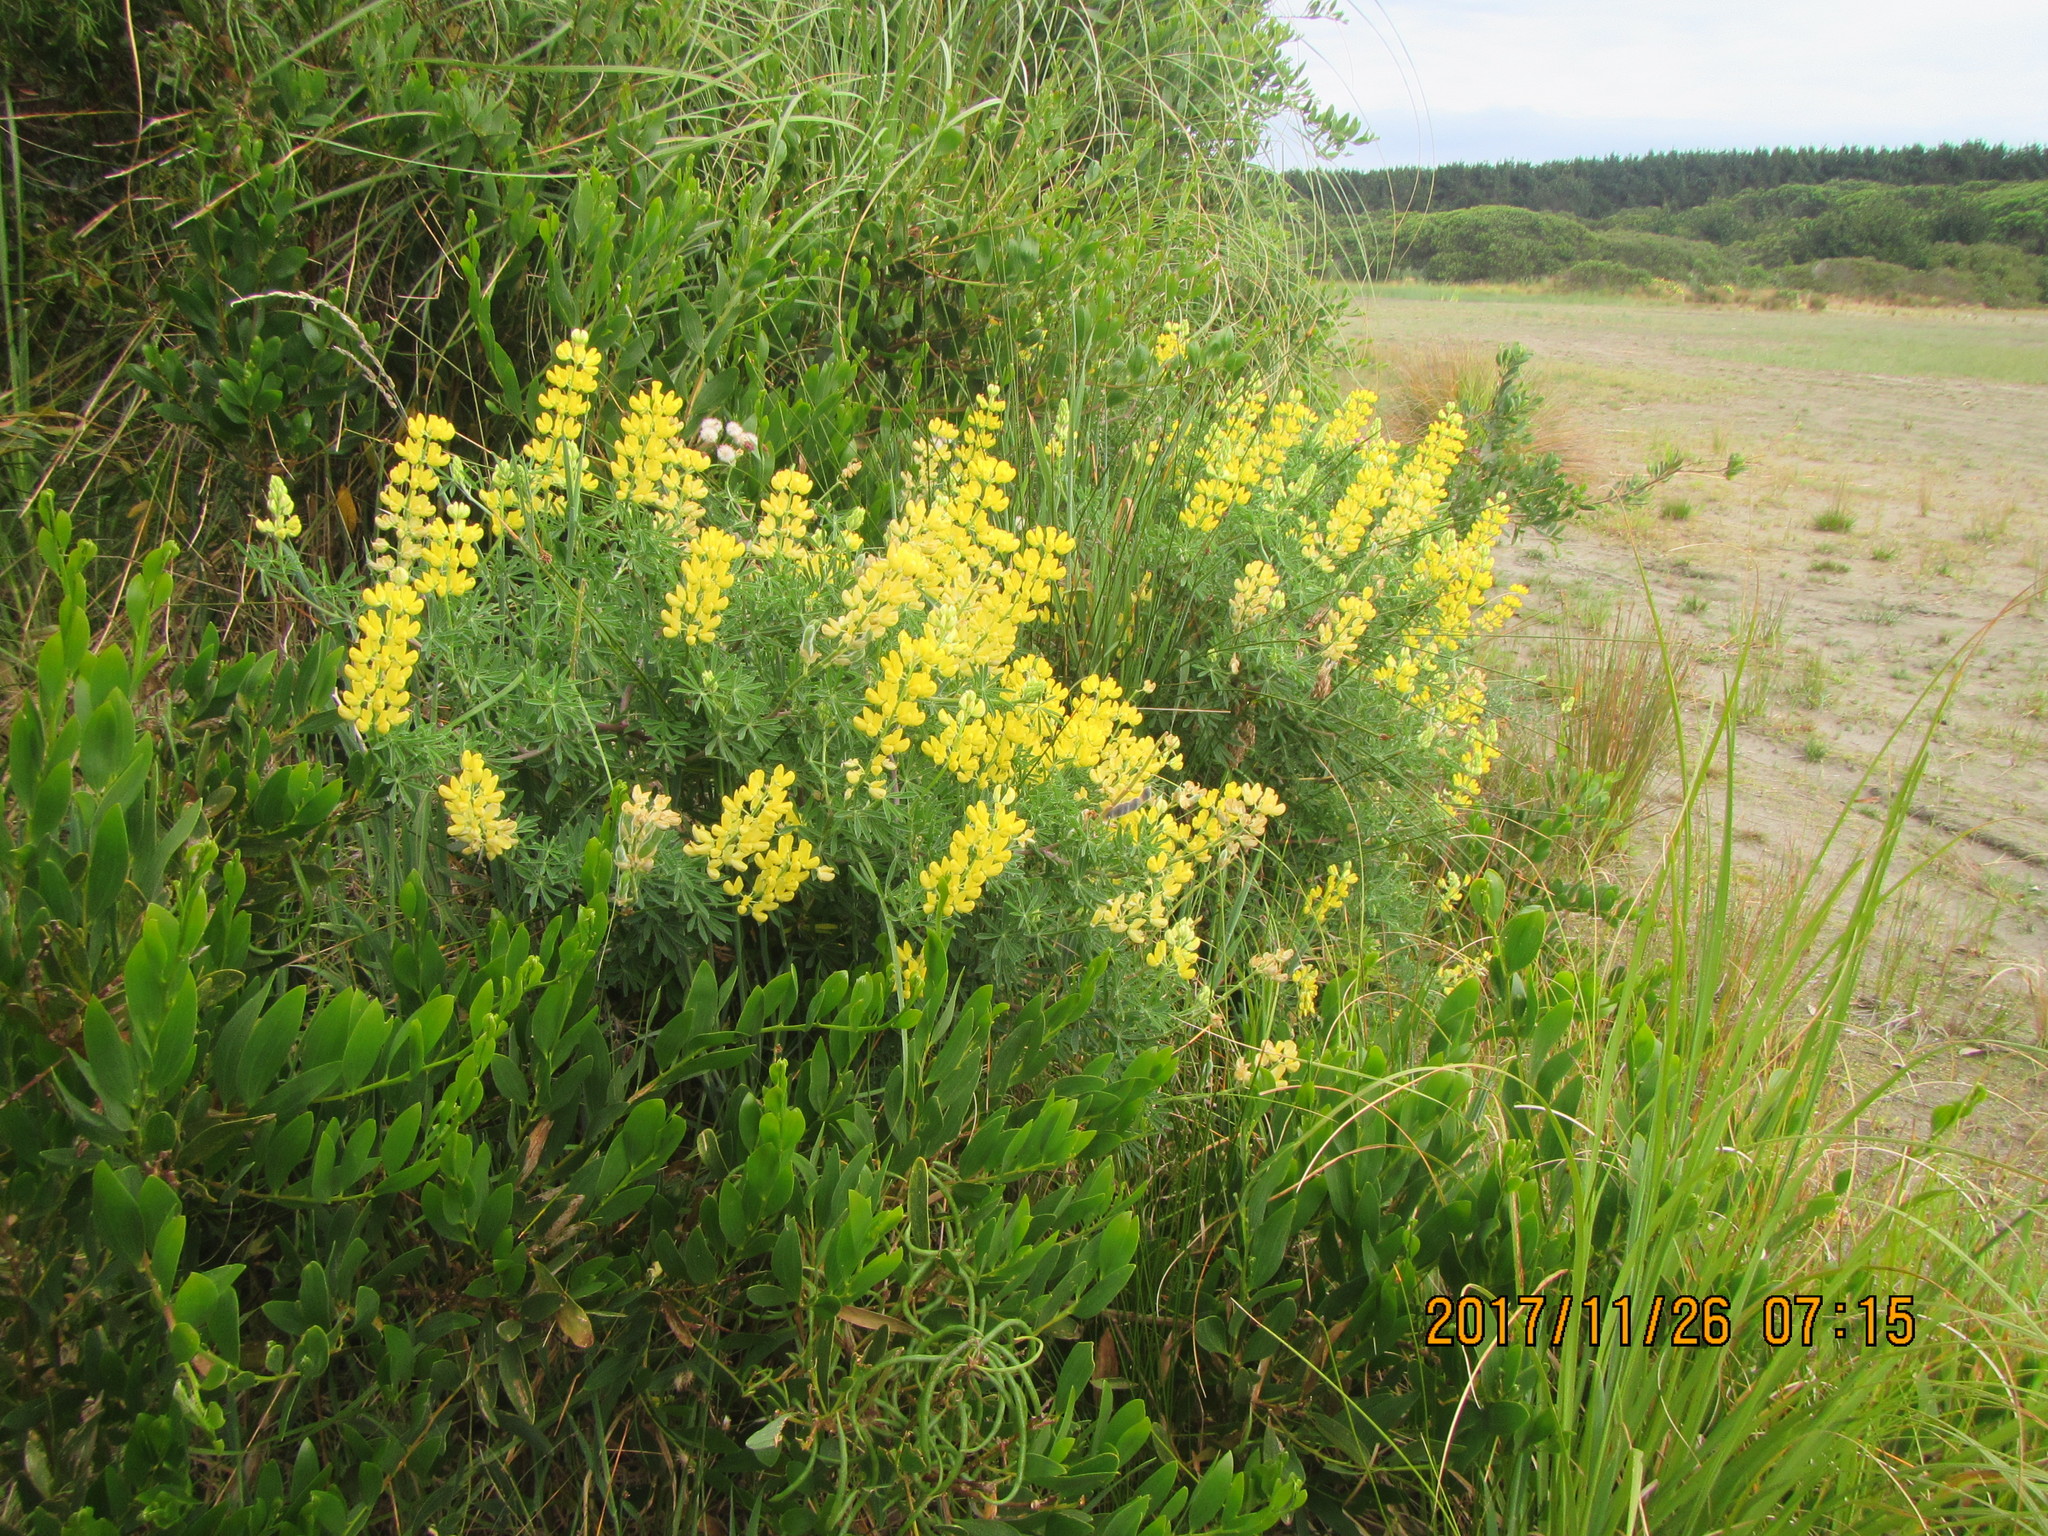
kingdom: Plantae
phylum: Tracheophyta
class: Magnoliopsida
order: Fabales
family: Fabaceae
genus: Lupinus
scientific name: Lupinus arboreus
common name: Yellow bush lupine
